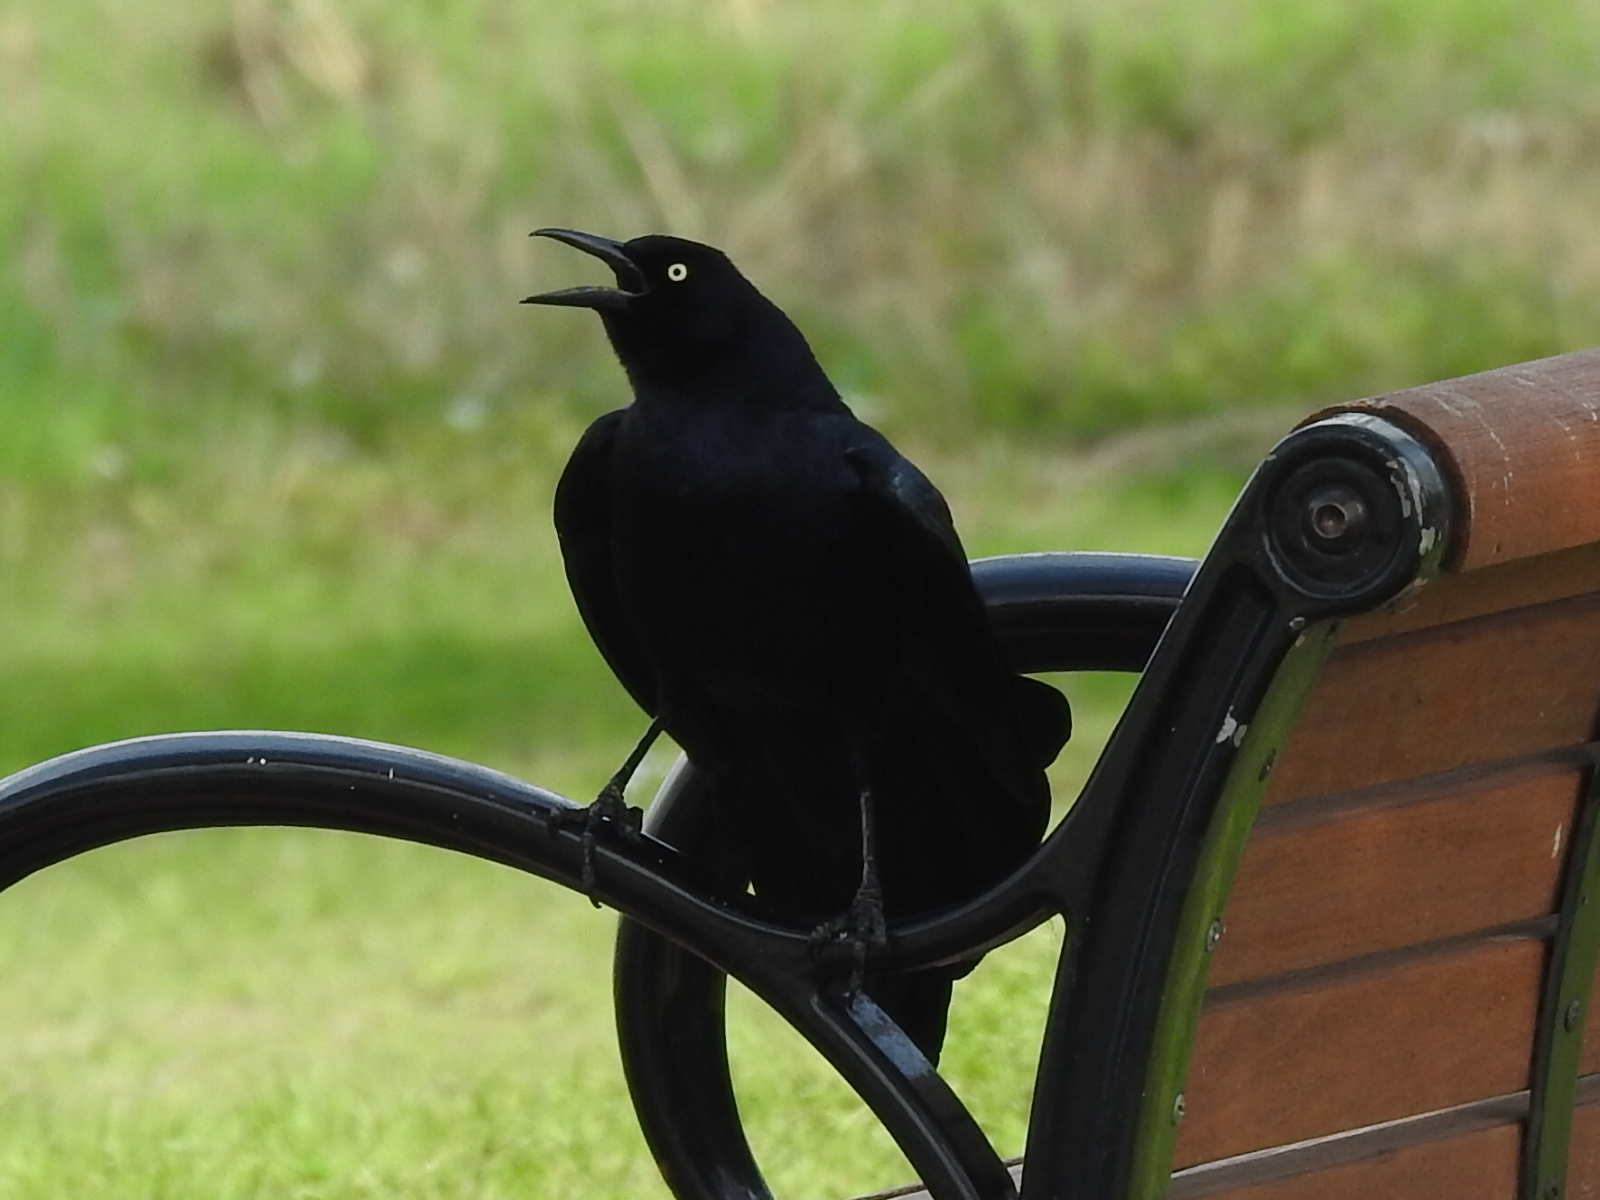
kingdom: Animalia
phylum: Chordata
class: Aves
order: Passeriformes
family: Icteridae
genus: Quiscalus
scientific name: Quiscalus mexicanus
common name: Great-tailed grackle
